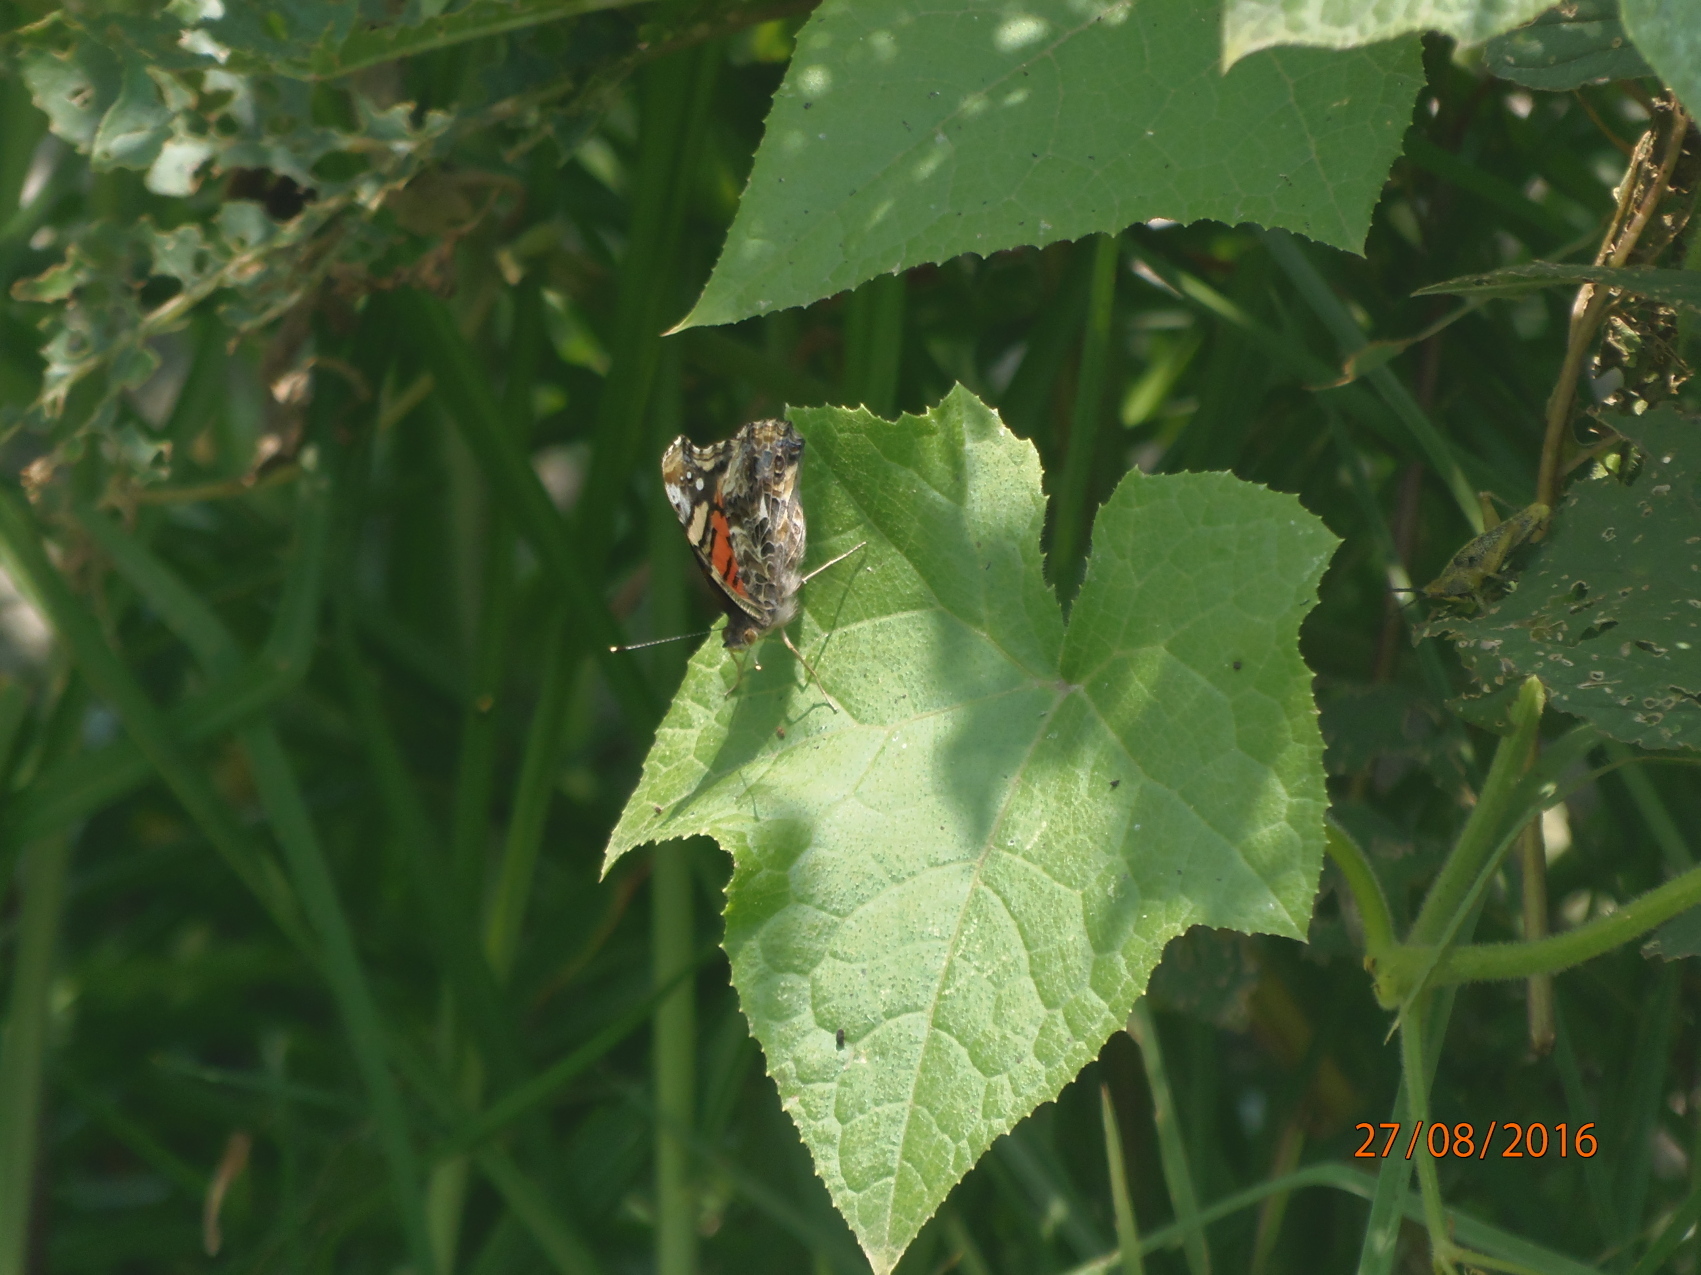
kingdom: Animalia
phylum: Arthropoda
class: Insecta
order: Lepidoptera
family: Nymphalidae
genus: Vanessa
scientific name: Vanessa annabella
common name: West coast lady
